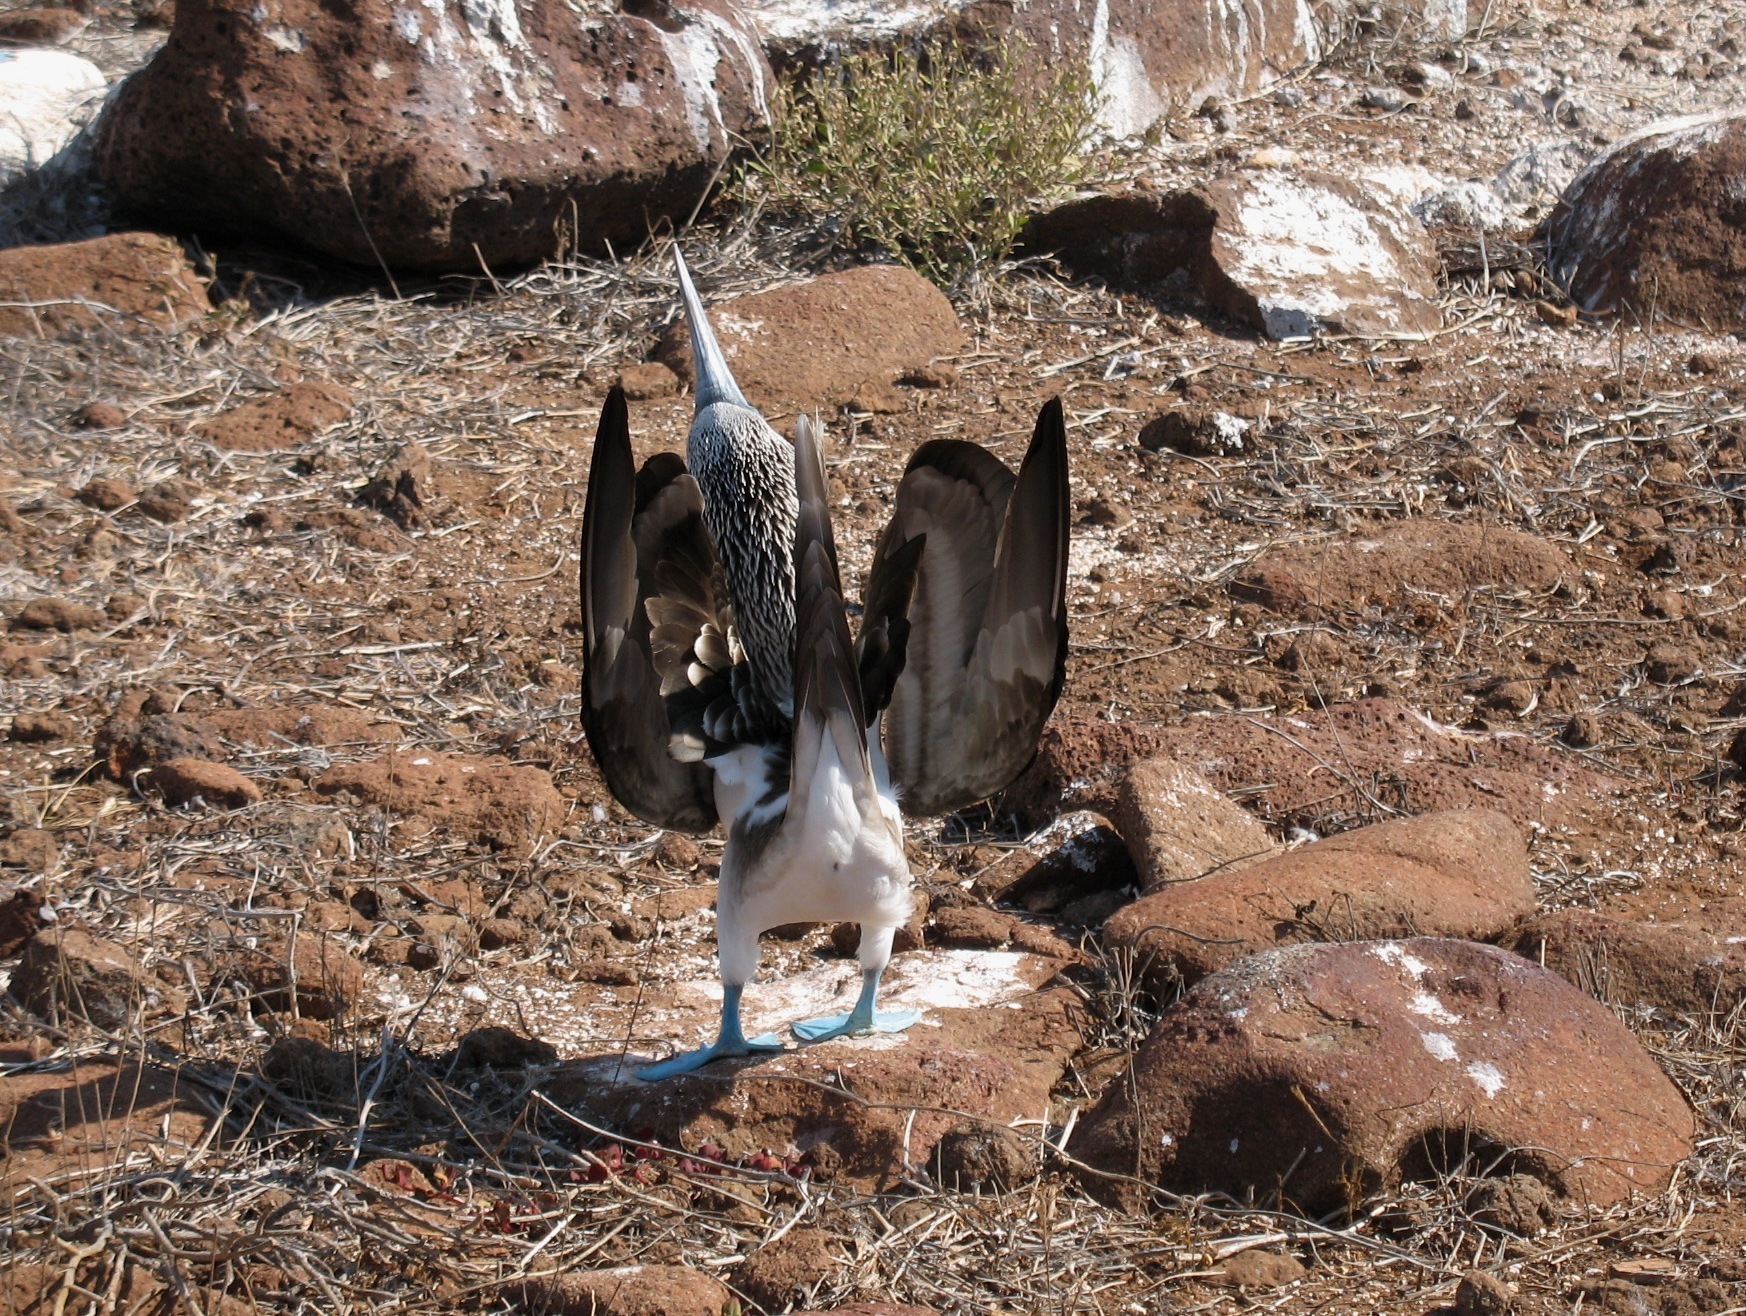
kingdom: Animalia
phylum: Chordata
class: Aves
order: Suliformes
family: Sulidae
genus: Sula
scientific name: Sula nebouxii
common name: Blue-footed booby
